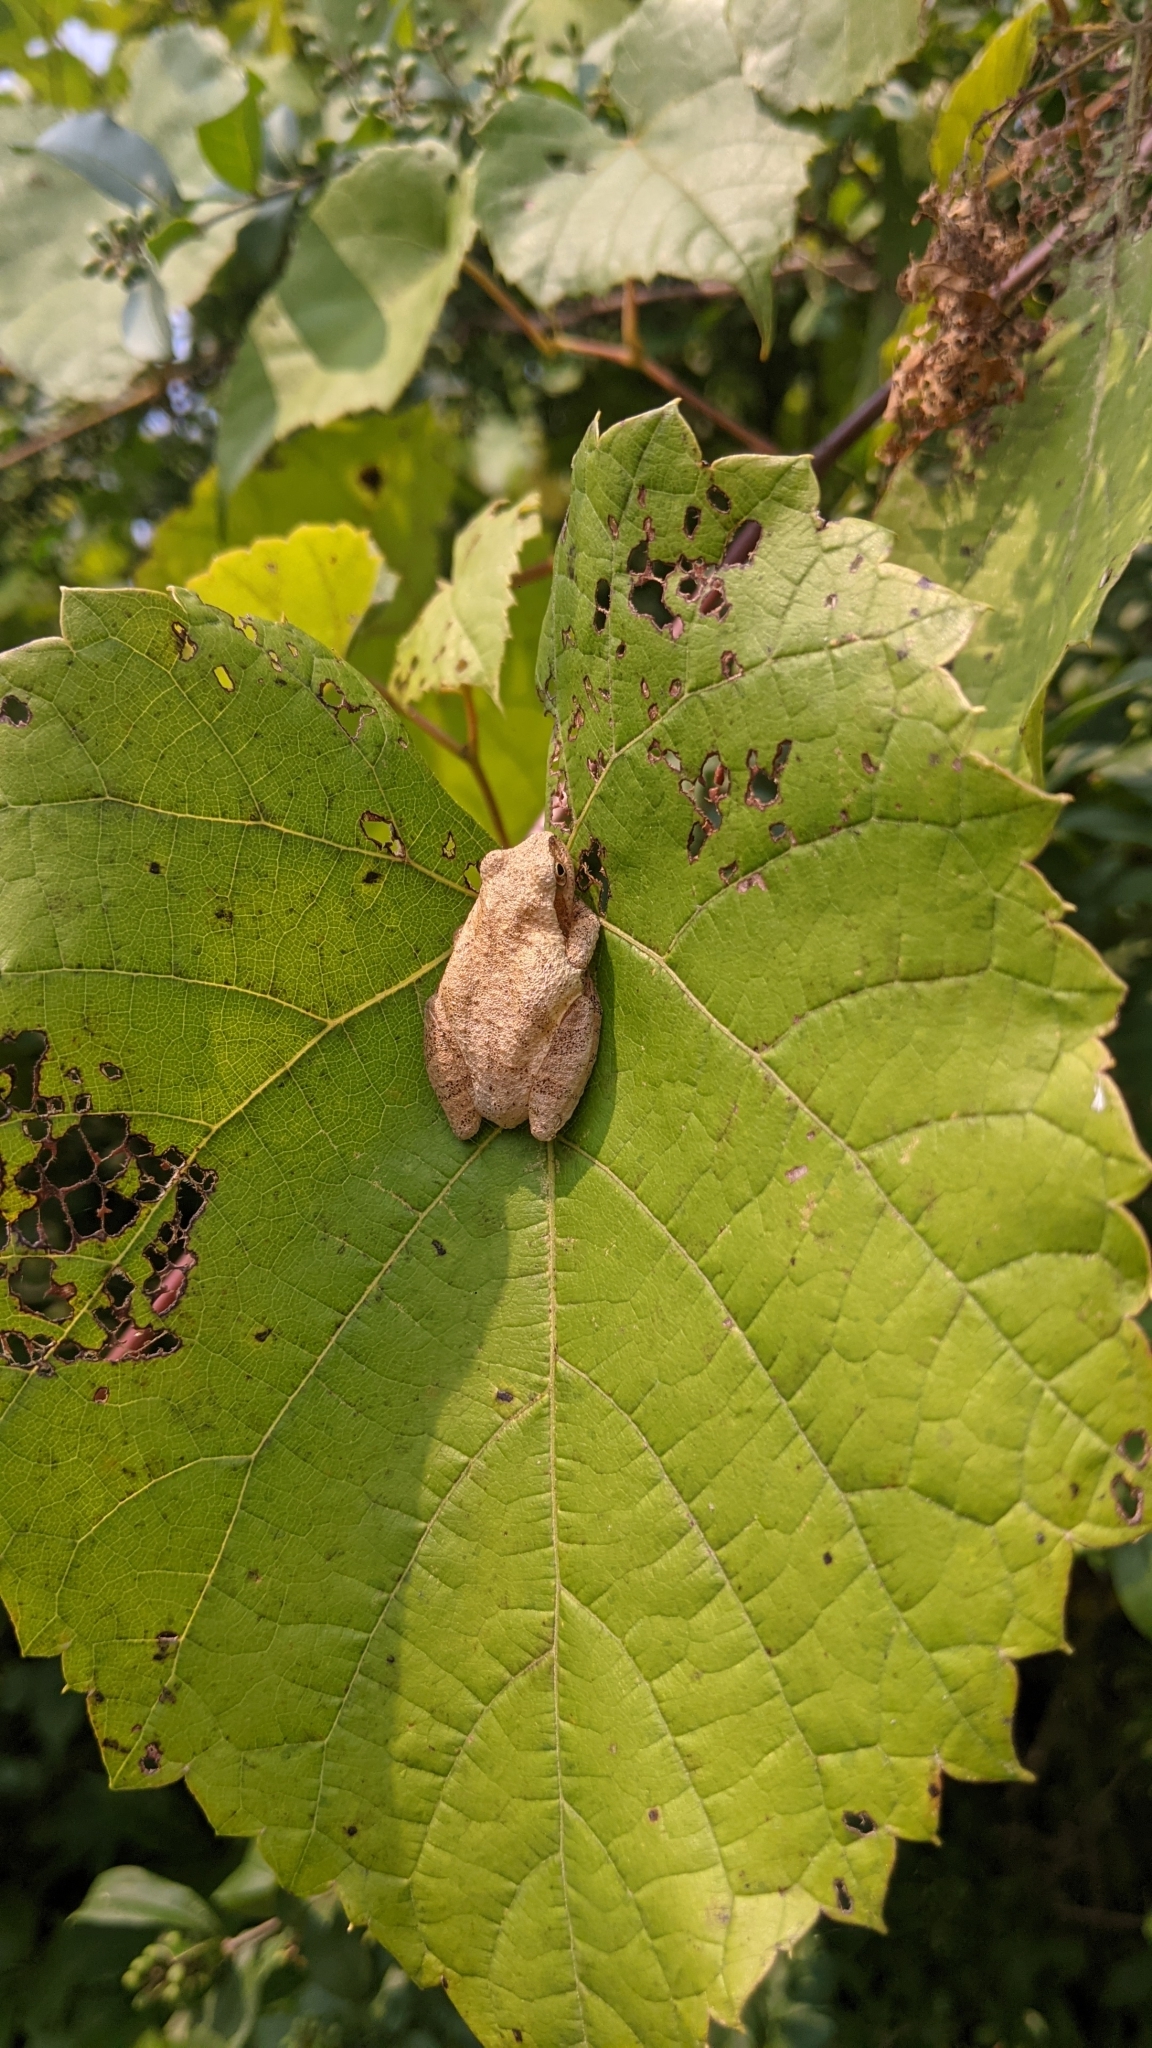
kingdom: Animalia
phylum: Chordata
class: Amphibia
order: Anura
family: Hylidae
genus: Pseudacris
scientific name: Pseudacris crucifer
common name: Spring peeper
